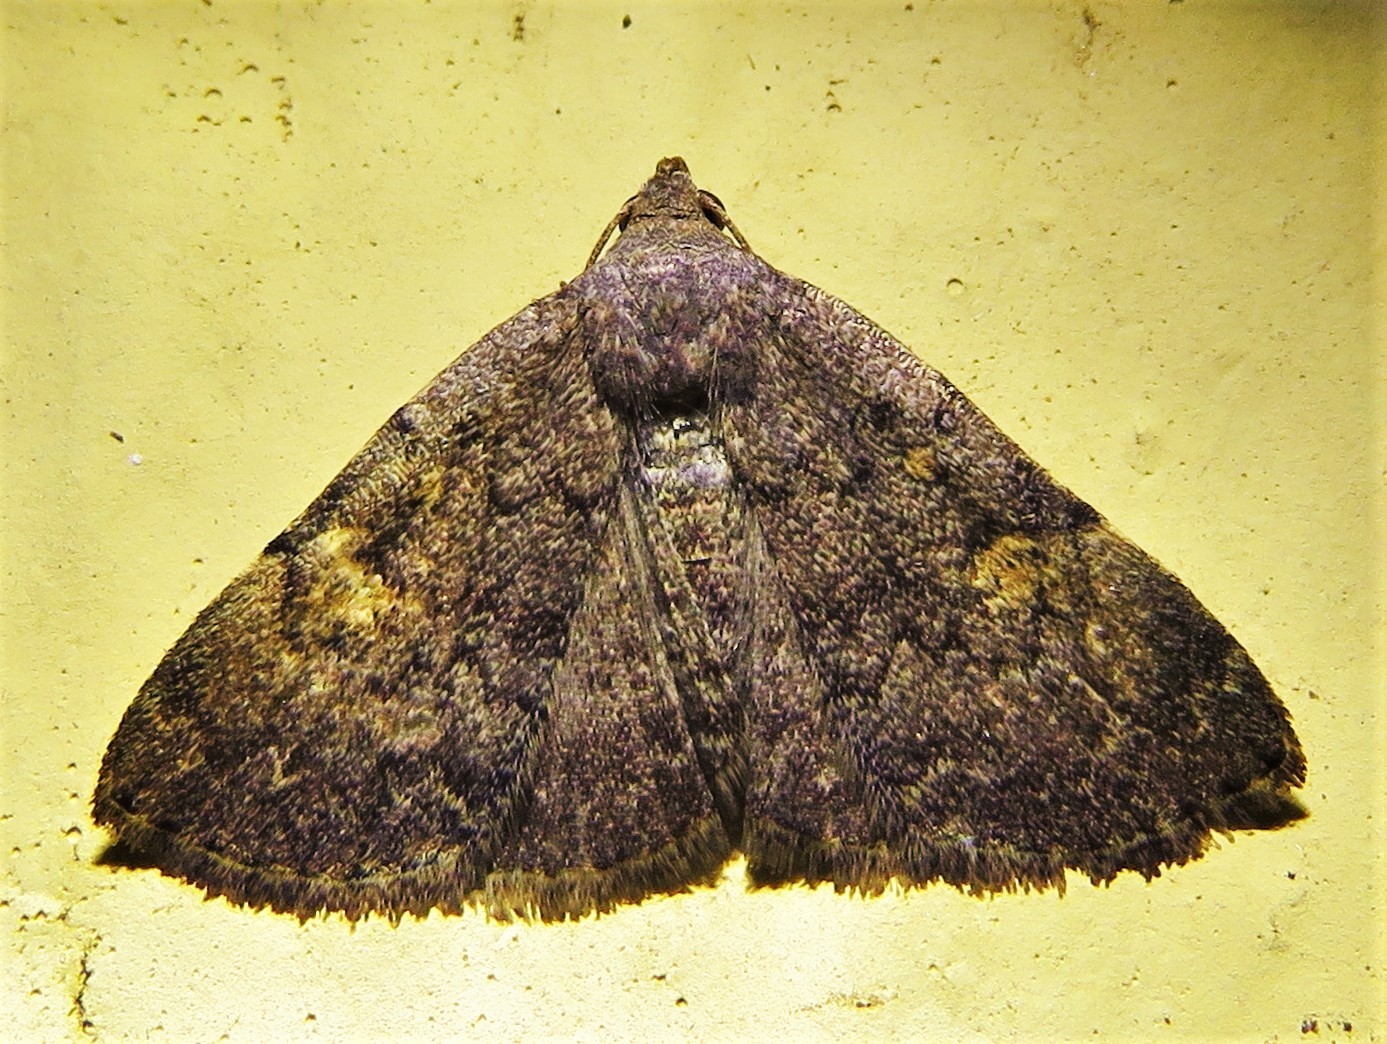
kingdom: Animalia
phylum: Arthropoda
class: Insecta
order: Lepidoptera
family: Erebidae
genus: Idia
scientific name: Idia aemula
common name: Common idia moth
